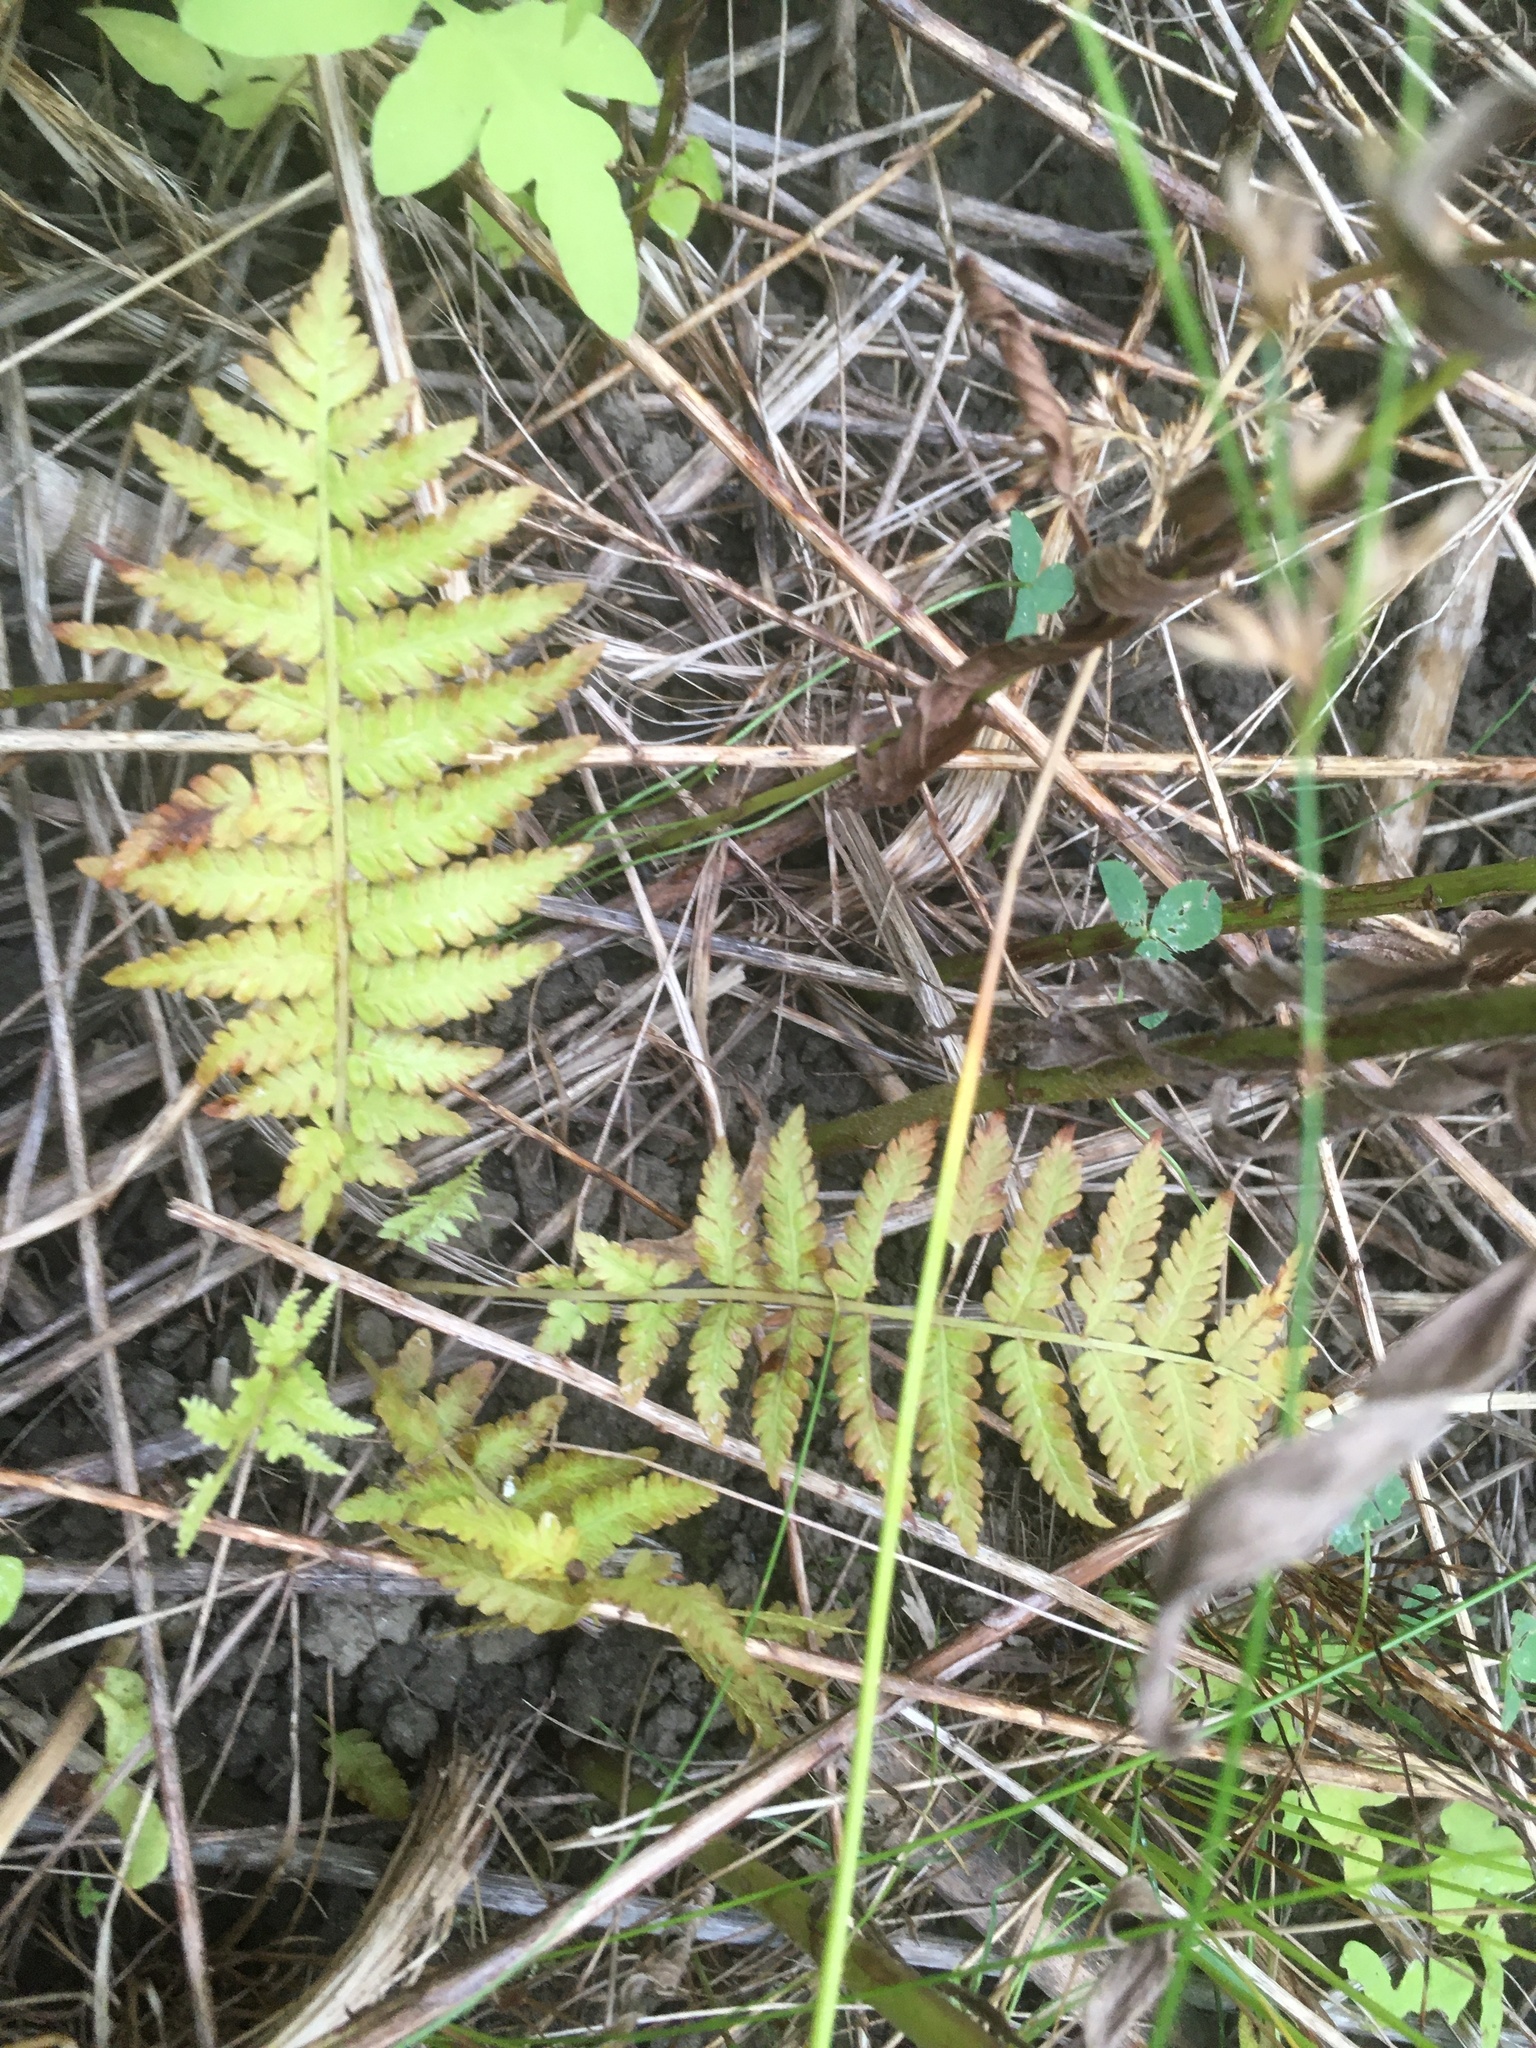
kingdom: Plantae
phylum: Tracheophyta
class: Polypodiopsida
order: Polypodiales
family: Thelypteridaceae
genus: Amauropelta
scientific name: Amauropelta noveboracensis
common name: New york fern
